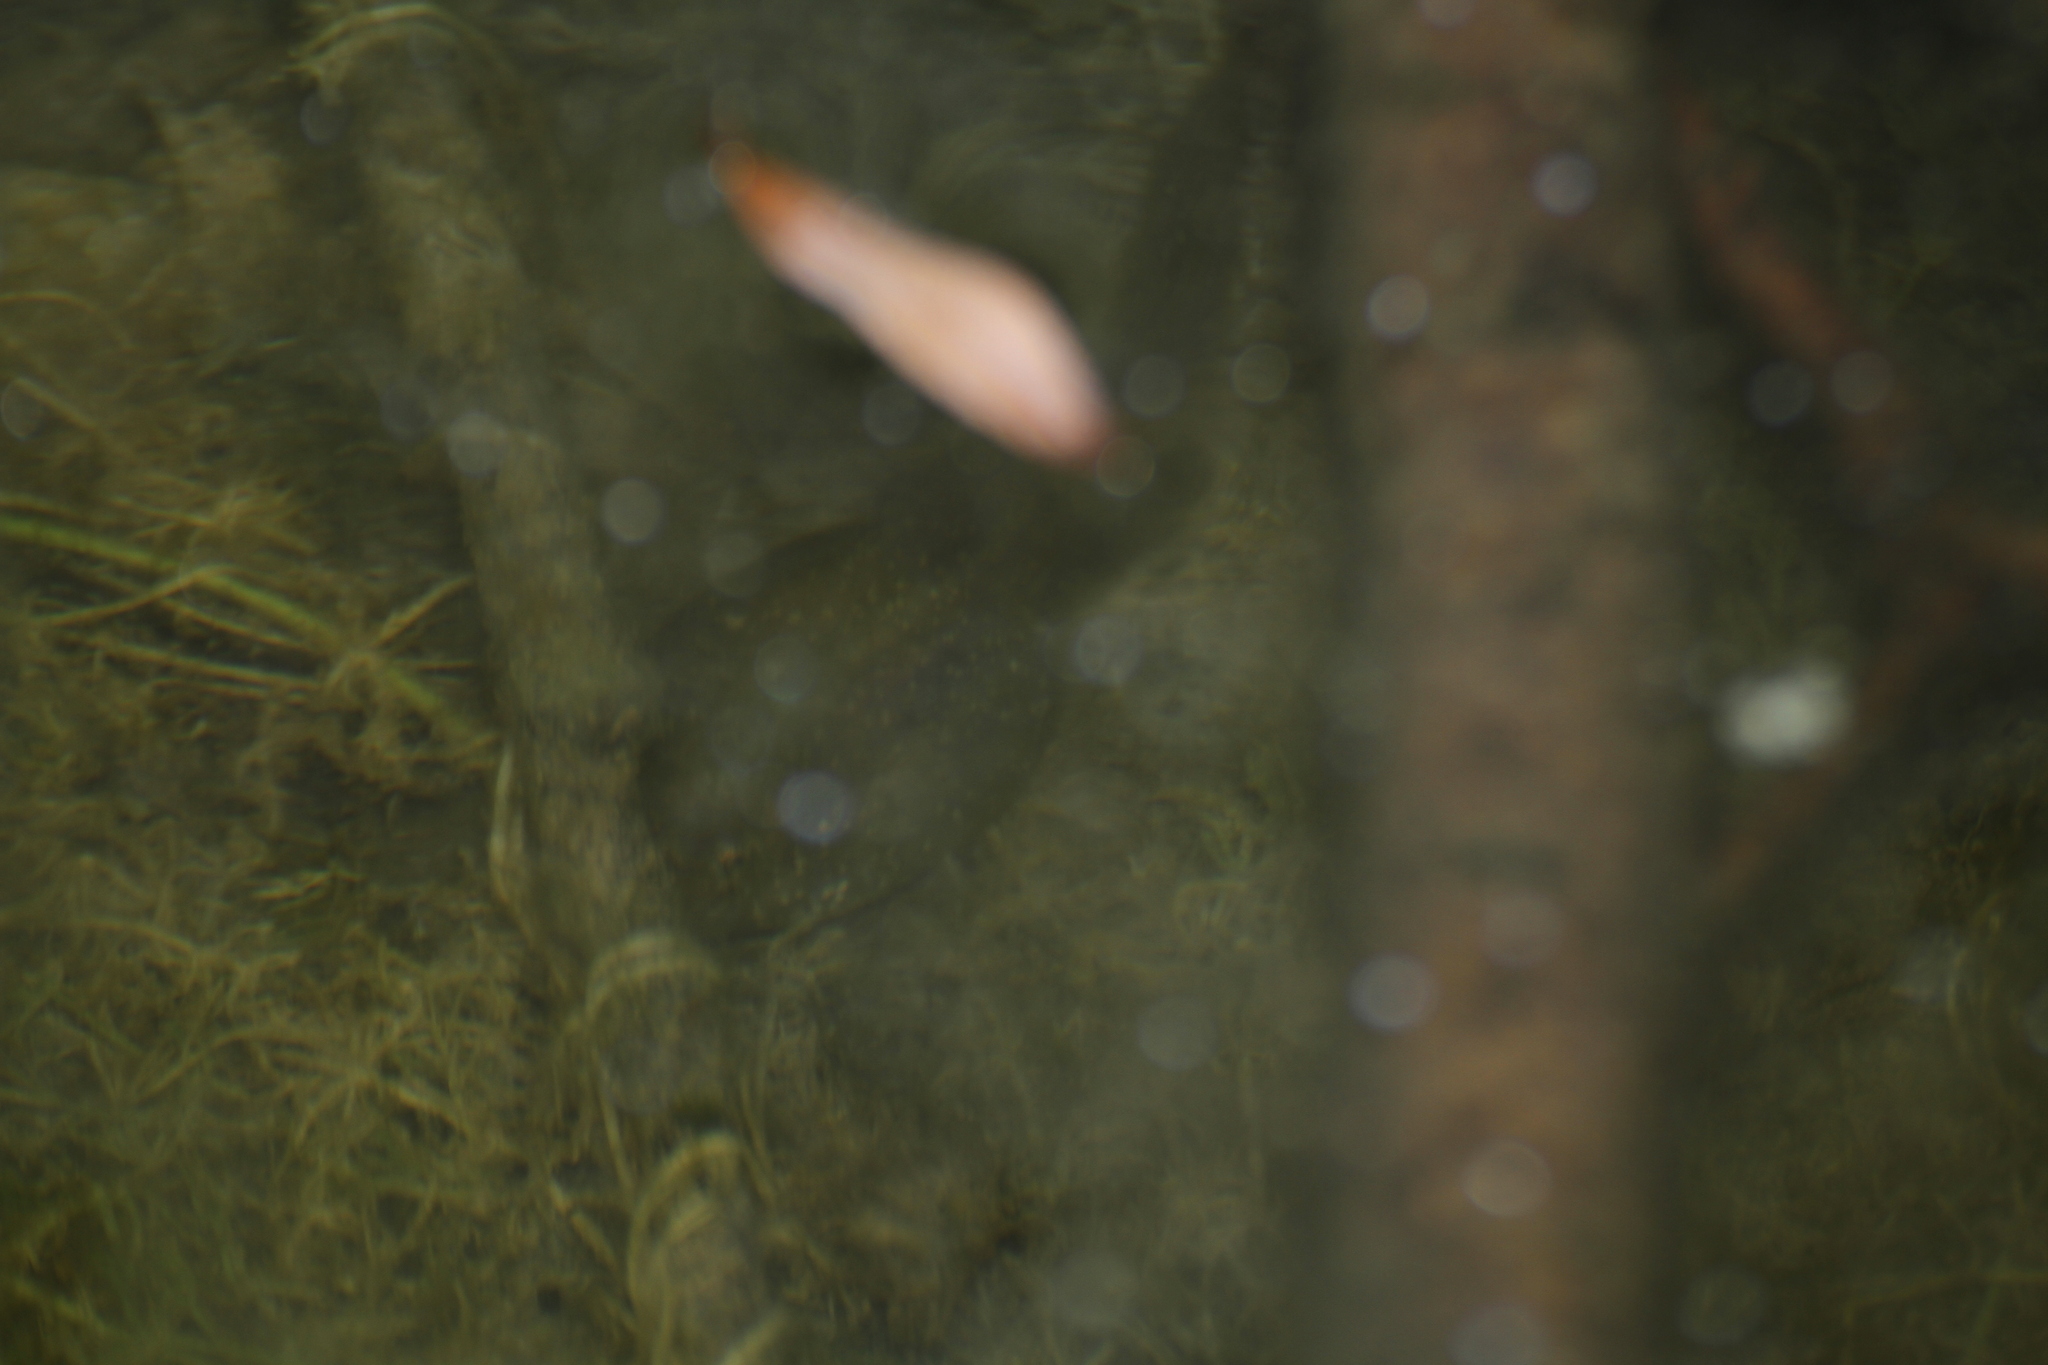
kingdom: Animalia
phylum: Chordata
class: Amphibia
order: Anura
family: Pelobatidae
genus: Pelobates
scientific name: Pelobates cultripes
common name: Western spadefoot
